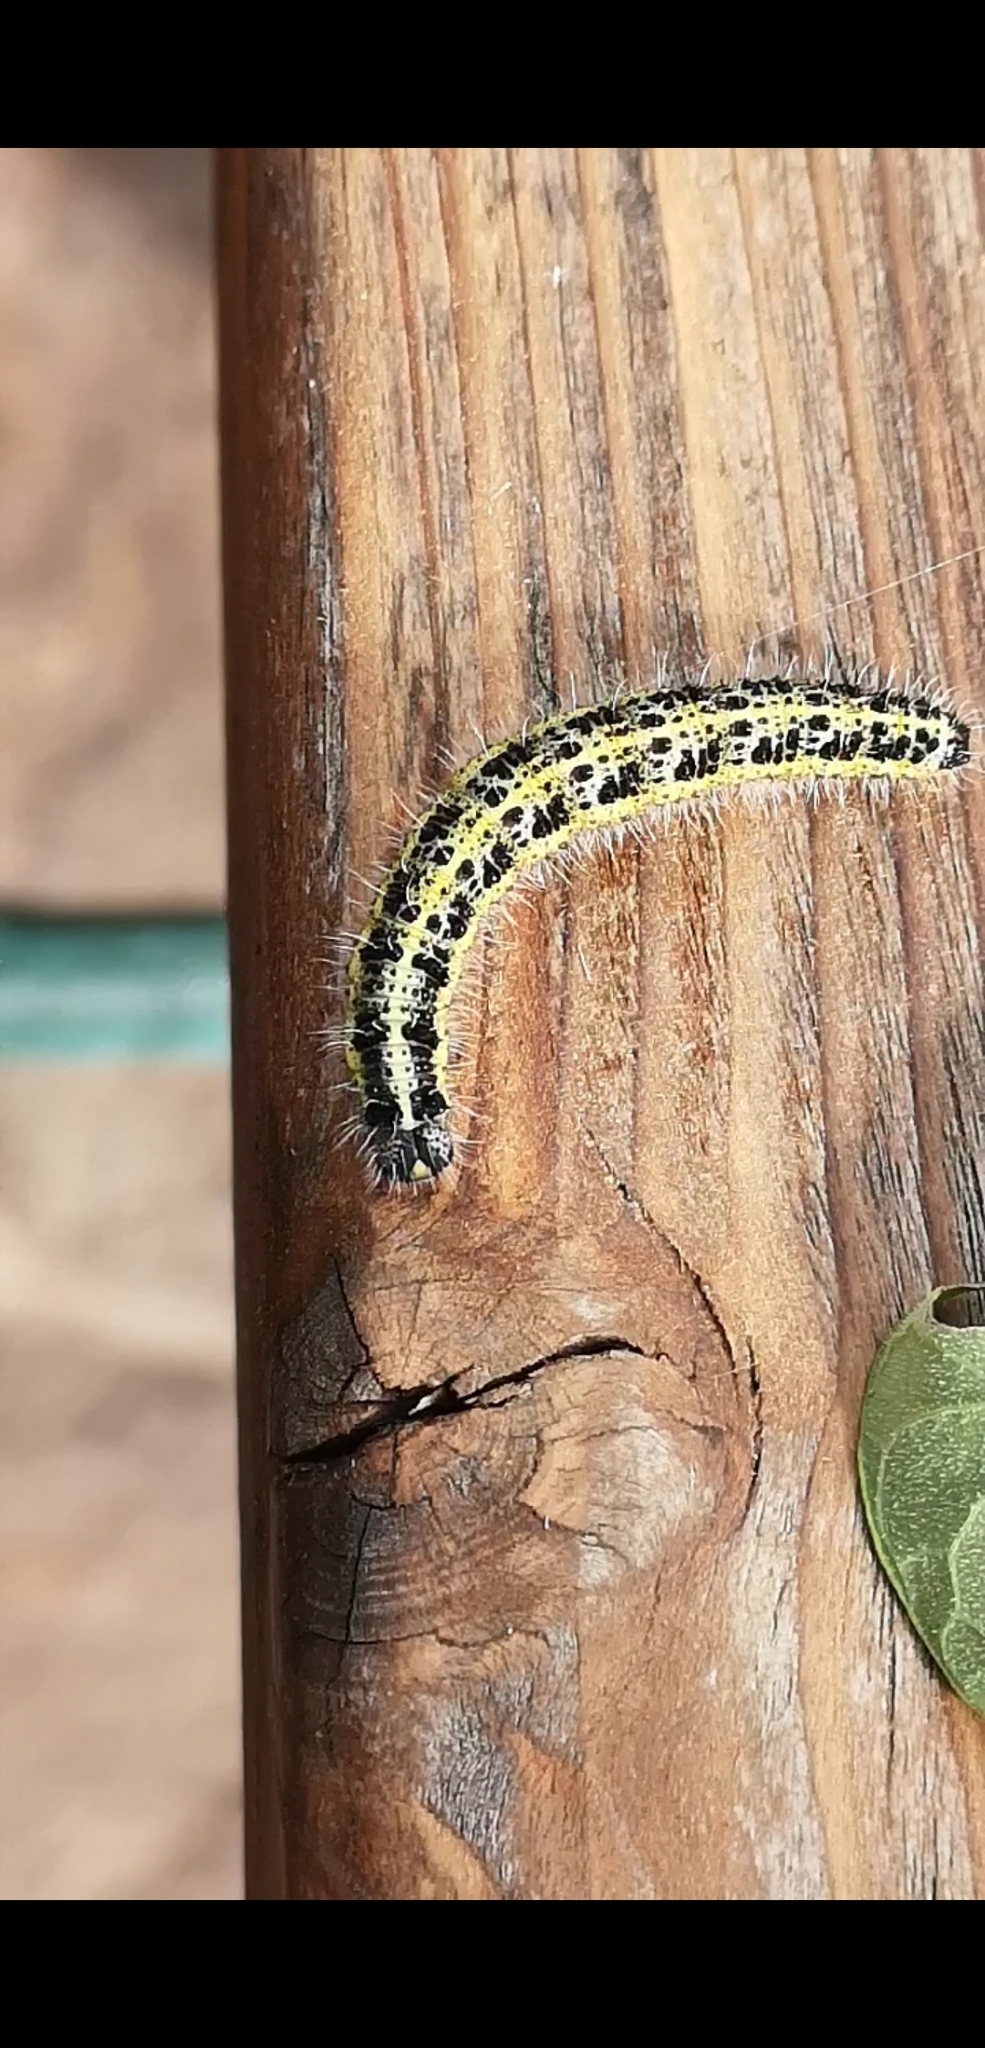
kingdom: Animalia
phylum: Arthropoda
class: Insecta
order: Lepidoptera
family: Pieridae
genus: Pieris
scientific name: Pieris brassicae
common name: Large white
